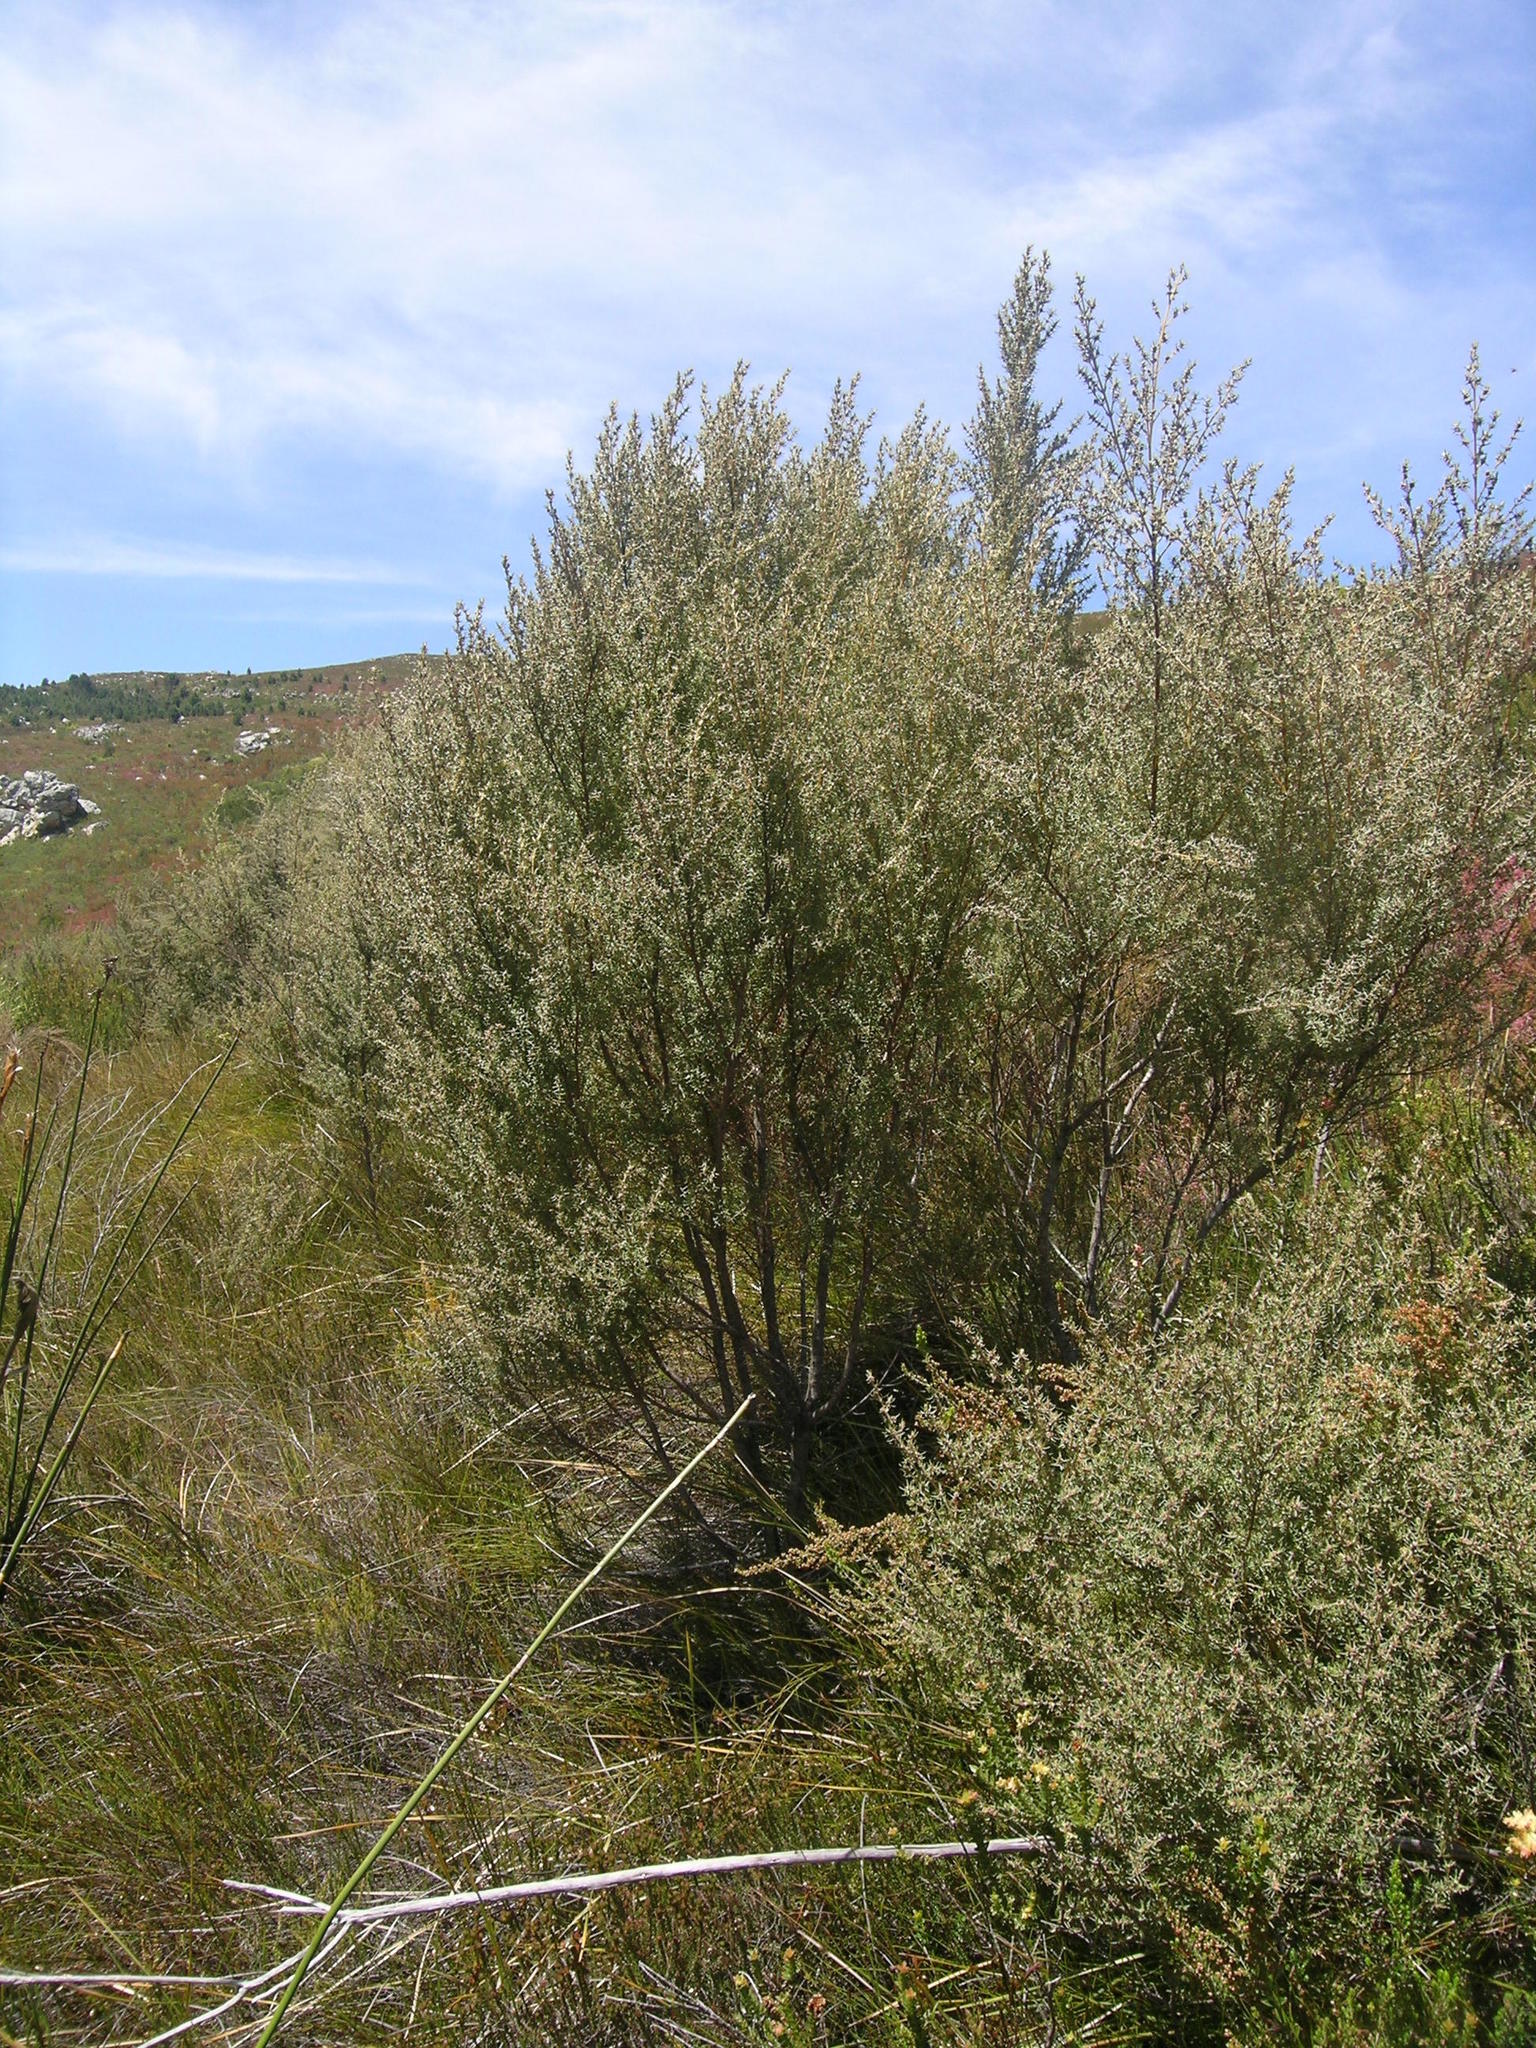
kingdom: Plantae
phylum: Tracheophyta
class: Magnoliopsida
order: Cornales
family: Grubbiaceae
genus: Grubbia
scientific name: Grubbia rosmarinifolia
